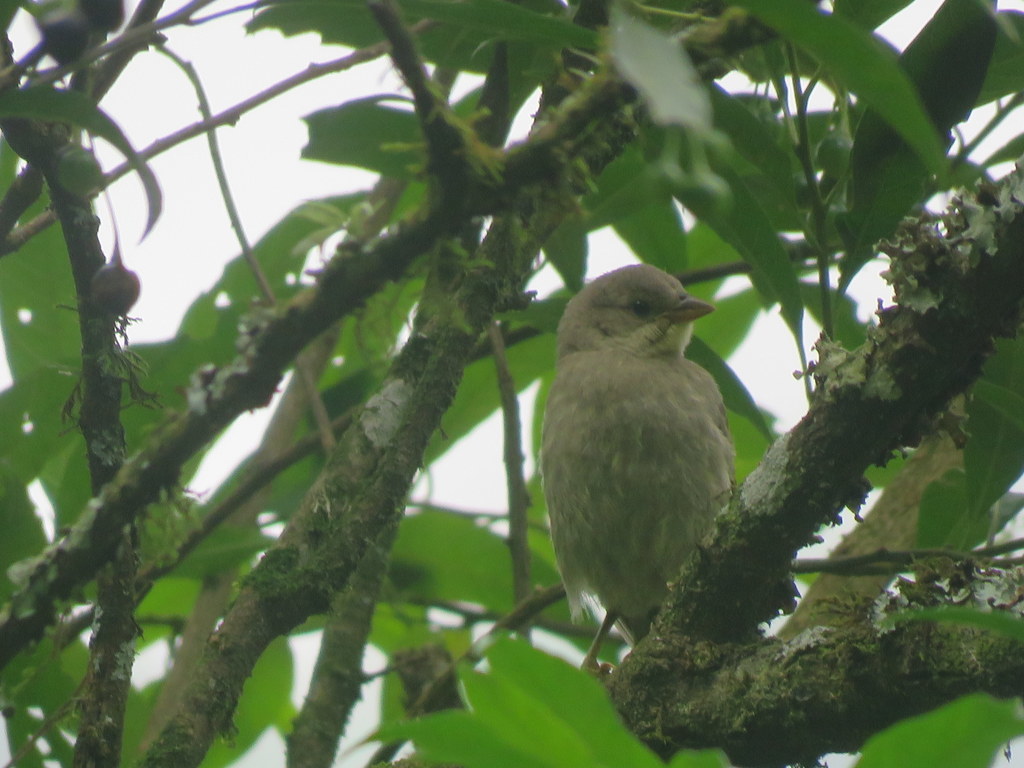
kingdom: Animalia
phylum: Chordata
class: Aves
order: Passeriformes
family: Icteridae
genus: Molothrus
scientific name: Molothrus bonariensis
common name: Shiny cowbird
